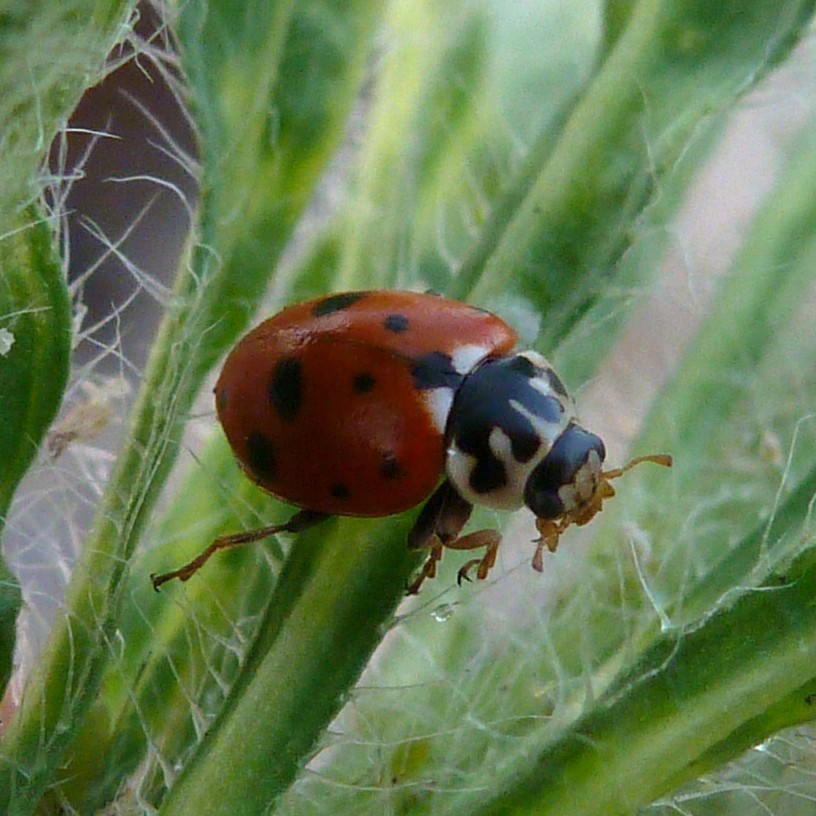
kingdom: Animalia
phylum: Arthropoda
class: Insecta
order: Coleoptera
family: Coccinellidae
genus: Hippodamia
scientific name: Hippodamia variegata
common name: Ladybird beetle
